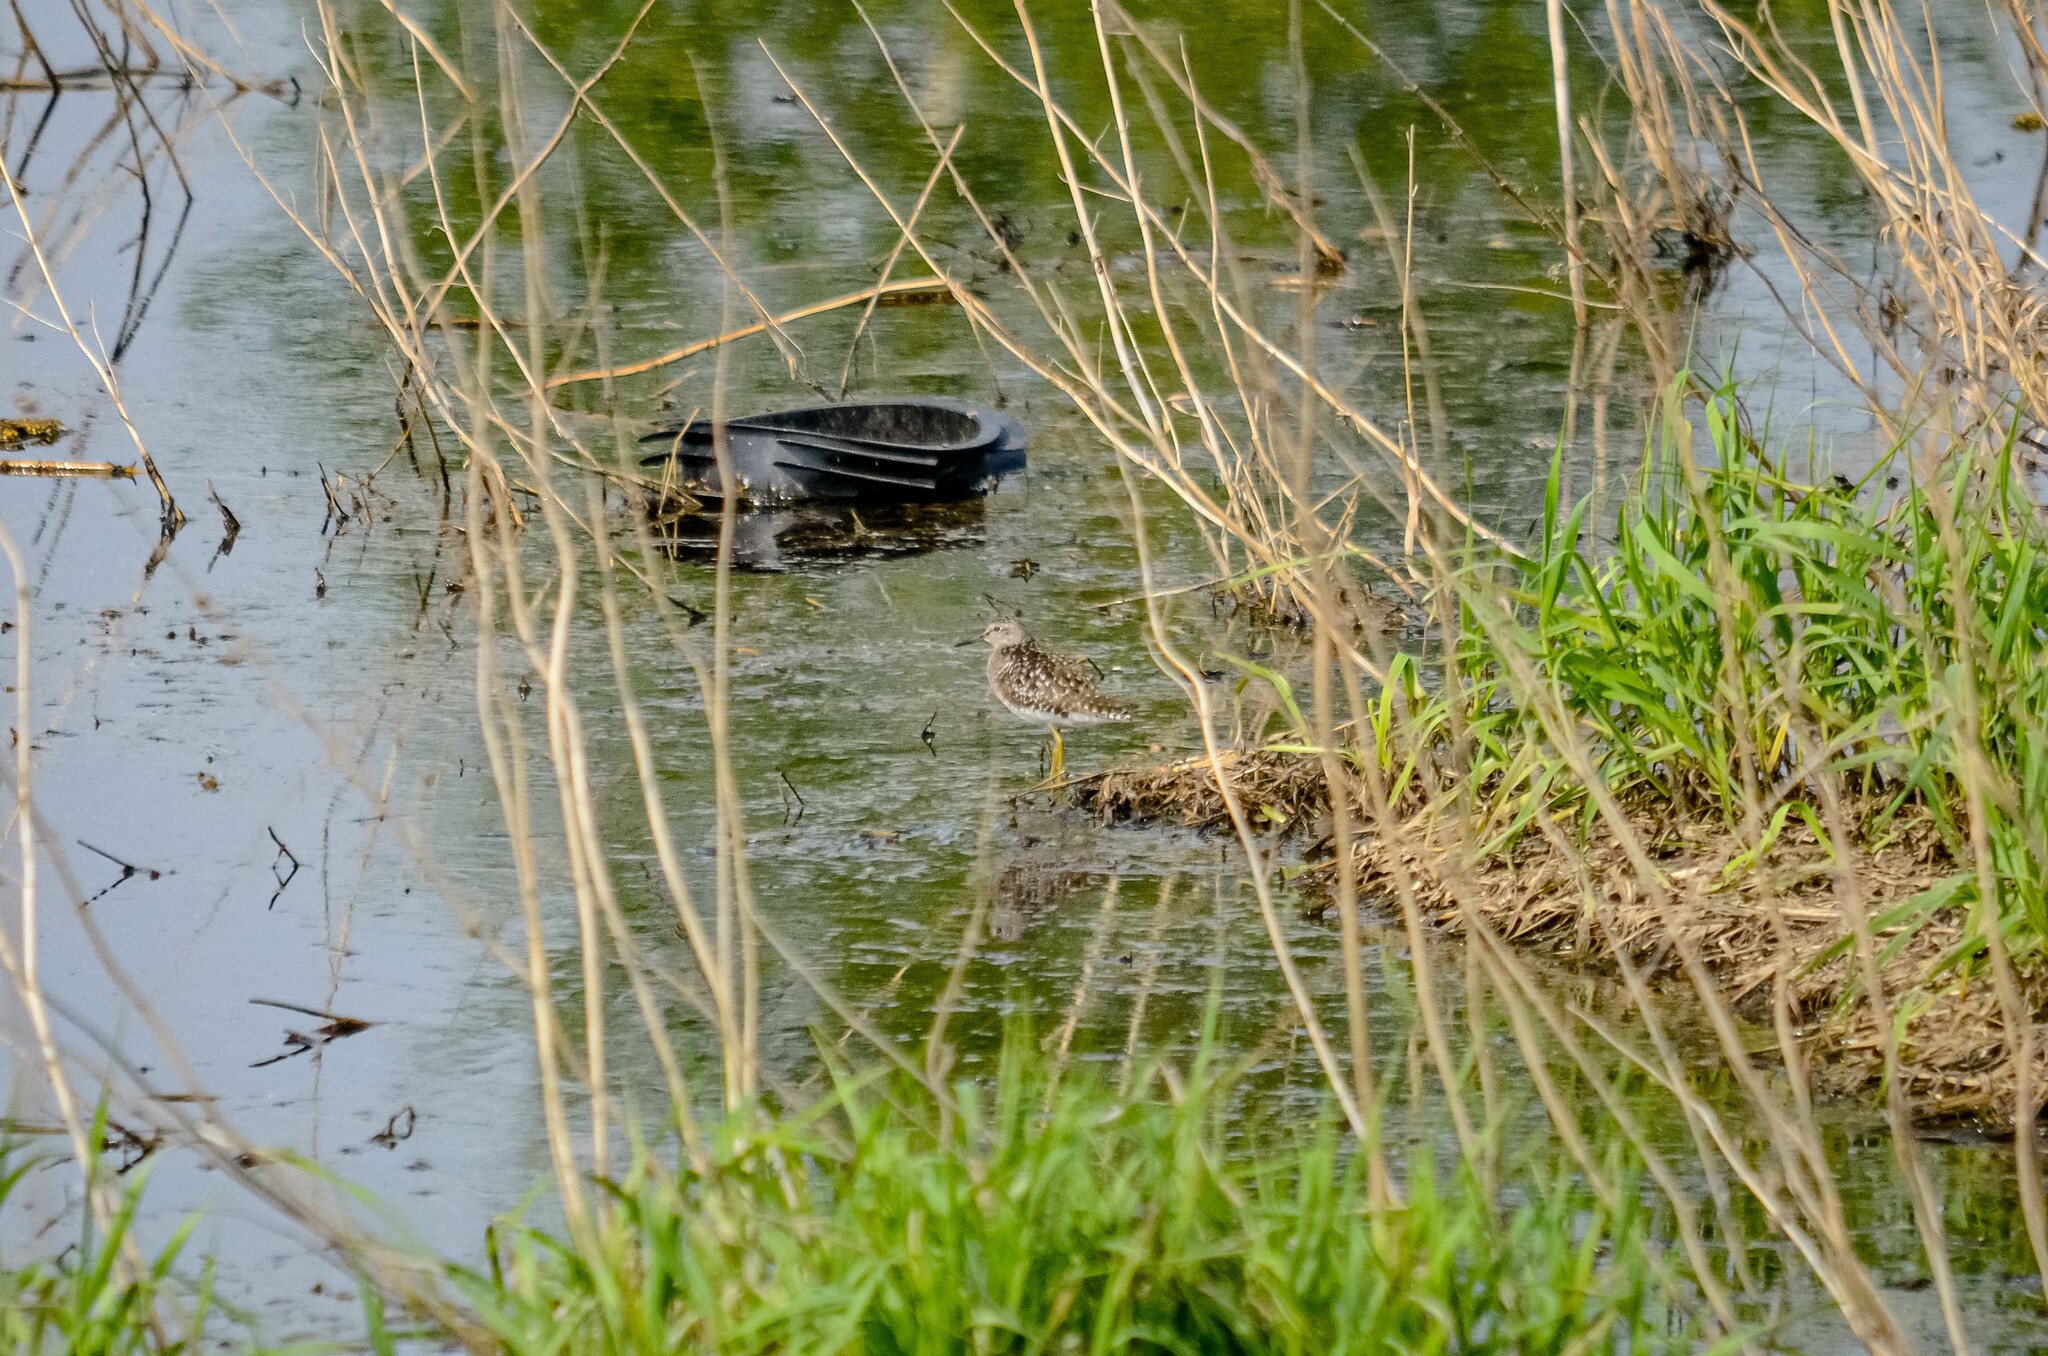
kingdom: Animalia
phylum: Chordata
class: Aves
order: Charadriiformes
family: Scolopacidae
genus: Tringa
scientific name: Tringa glareola
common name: Wood sandpiper
